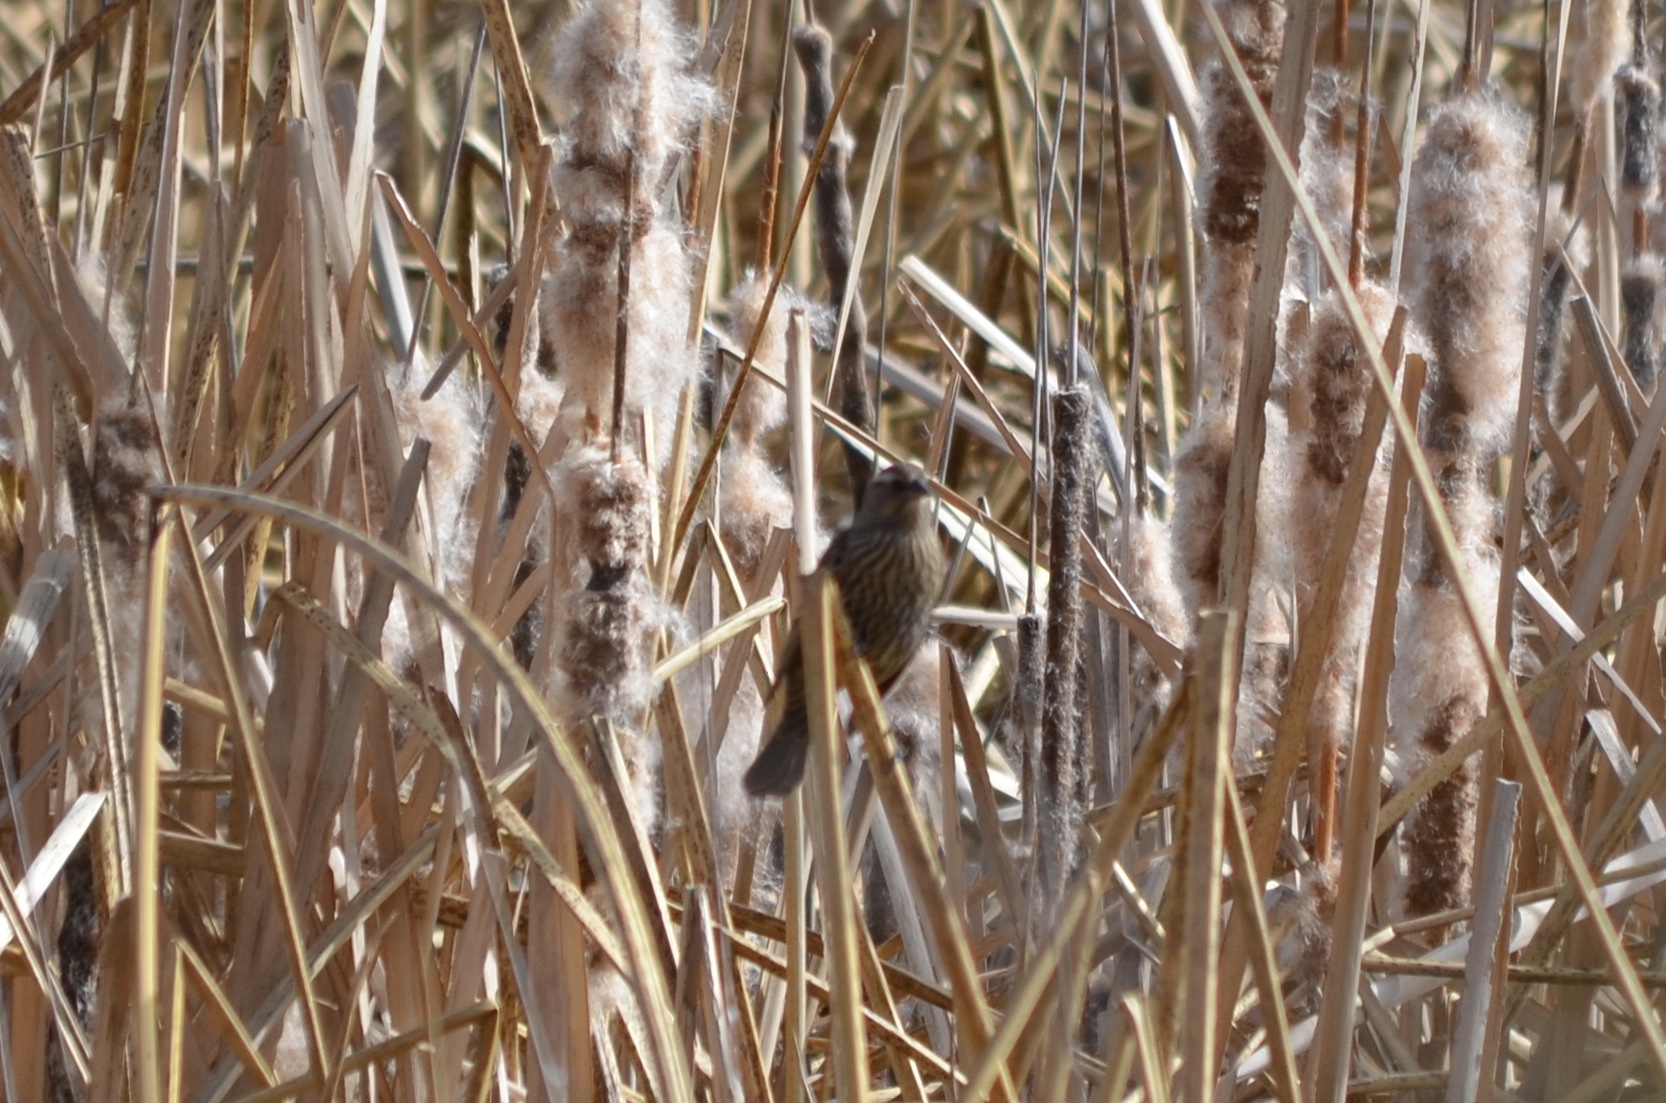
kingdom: Animalia
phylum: Chordata
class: Aves
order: Passeriformes
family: Icteridae
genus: Agelaius
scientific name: Agelaius phoeniceus
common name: Red-winged blackbird
